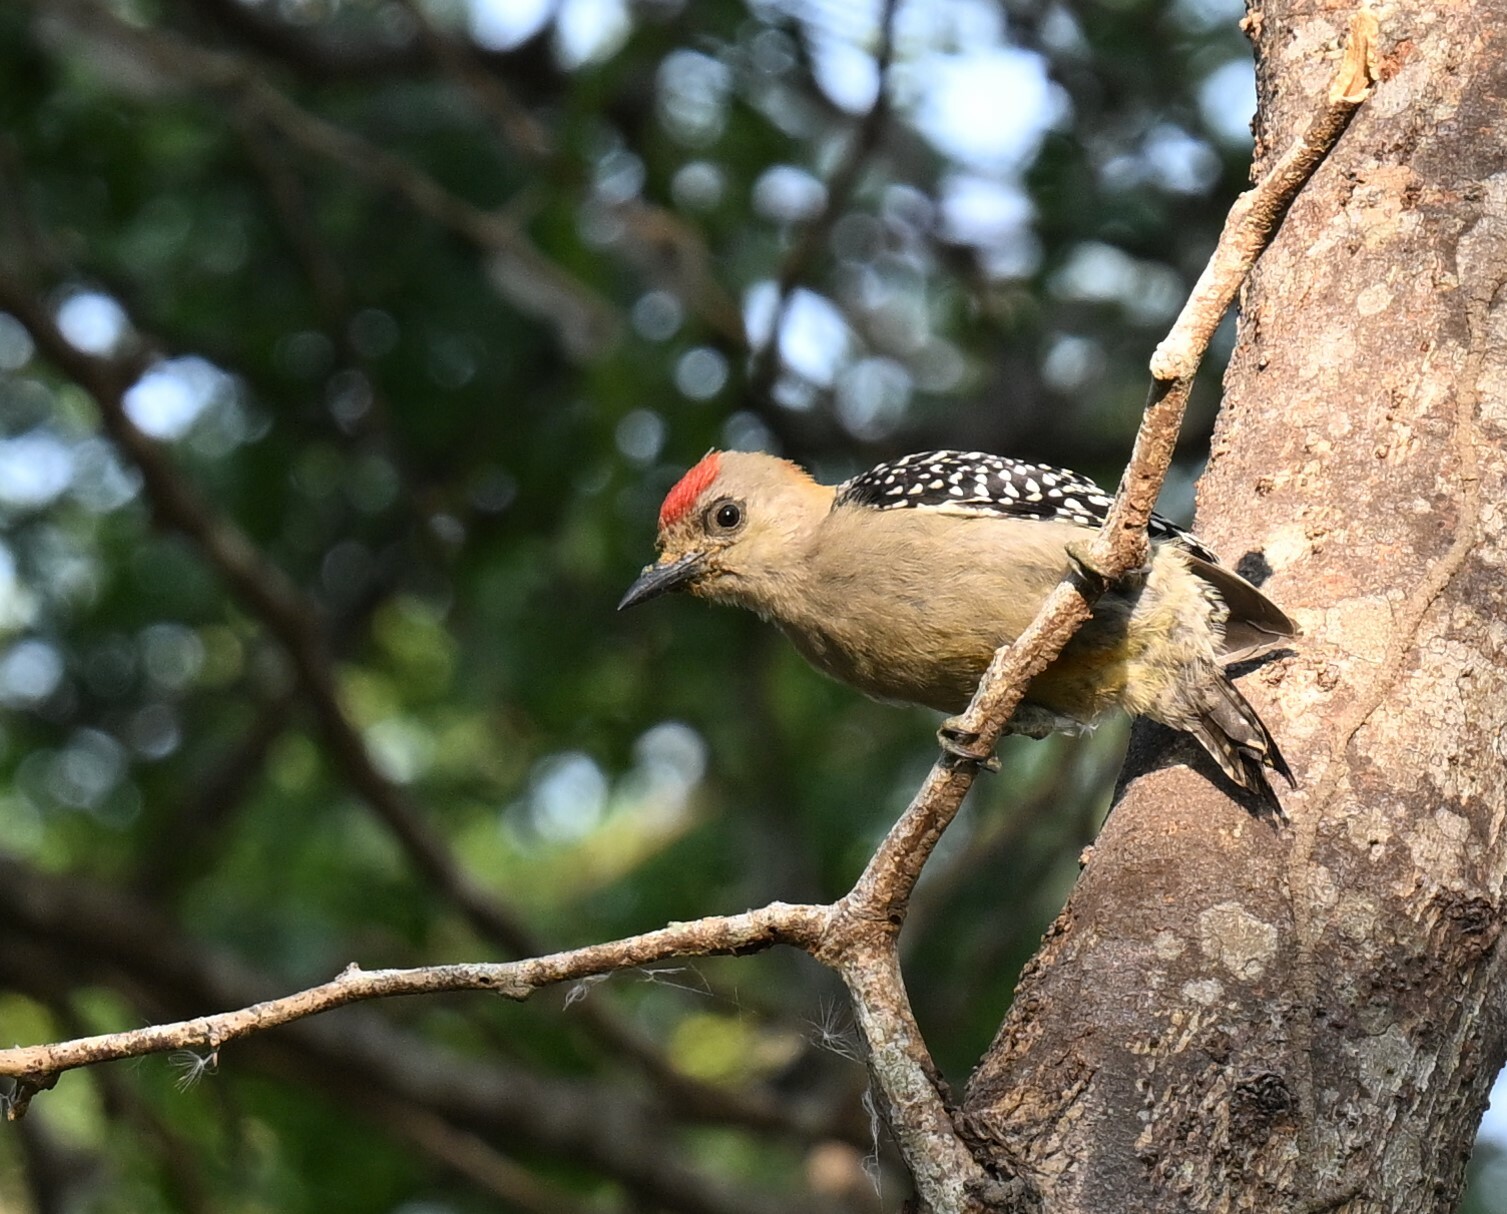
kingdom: Animalia
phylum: Chordata
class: Aves
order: Piciformes
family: Picidae
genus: Melanerpes
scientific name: Melanerpes rubricapillus
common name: Red-crowned woodpecker
